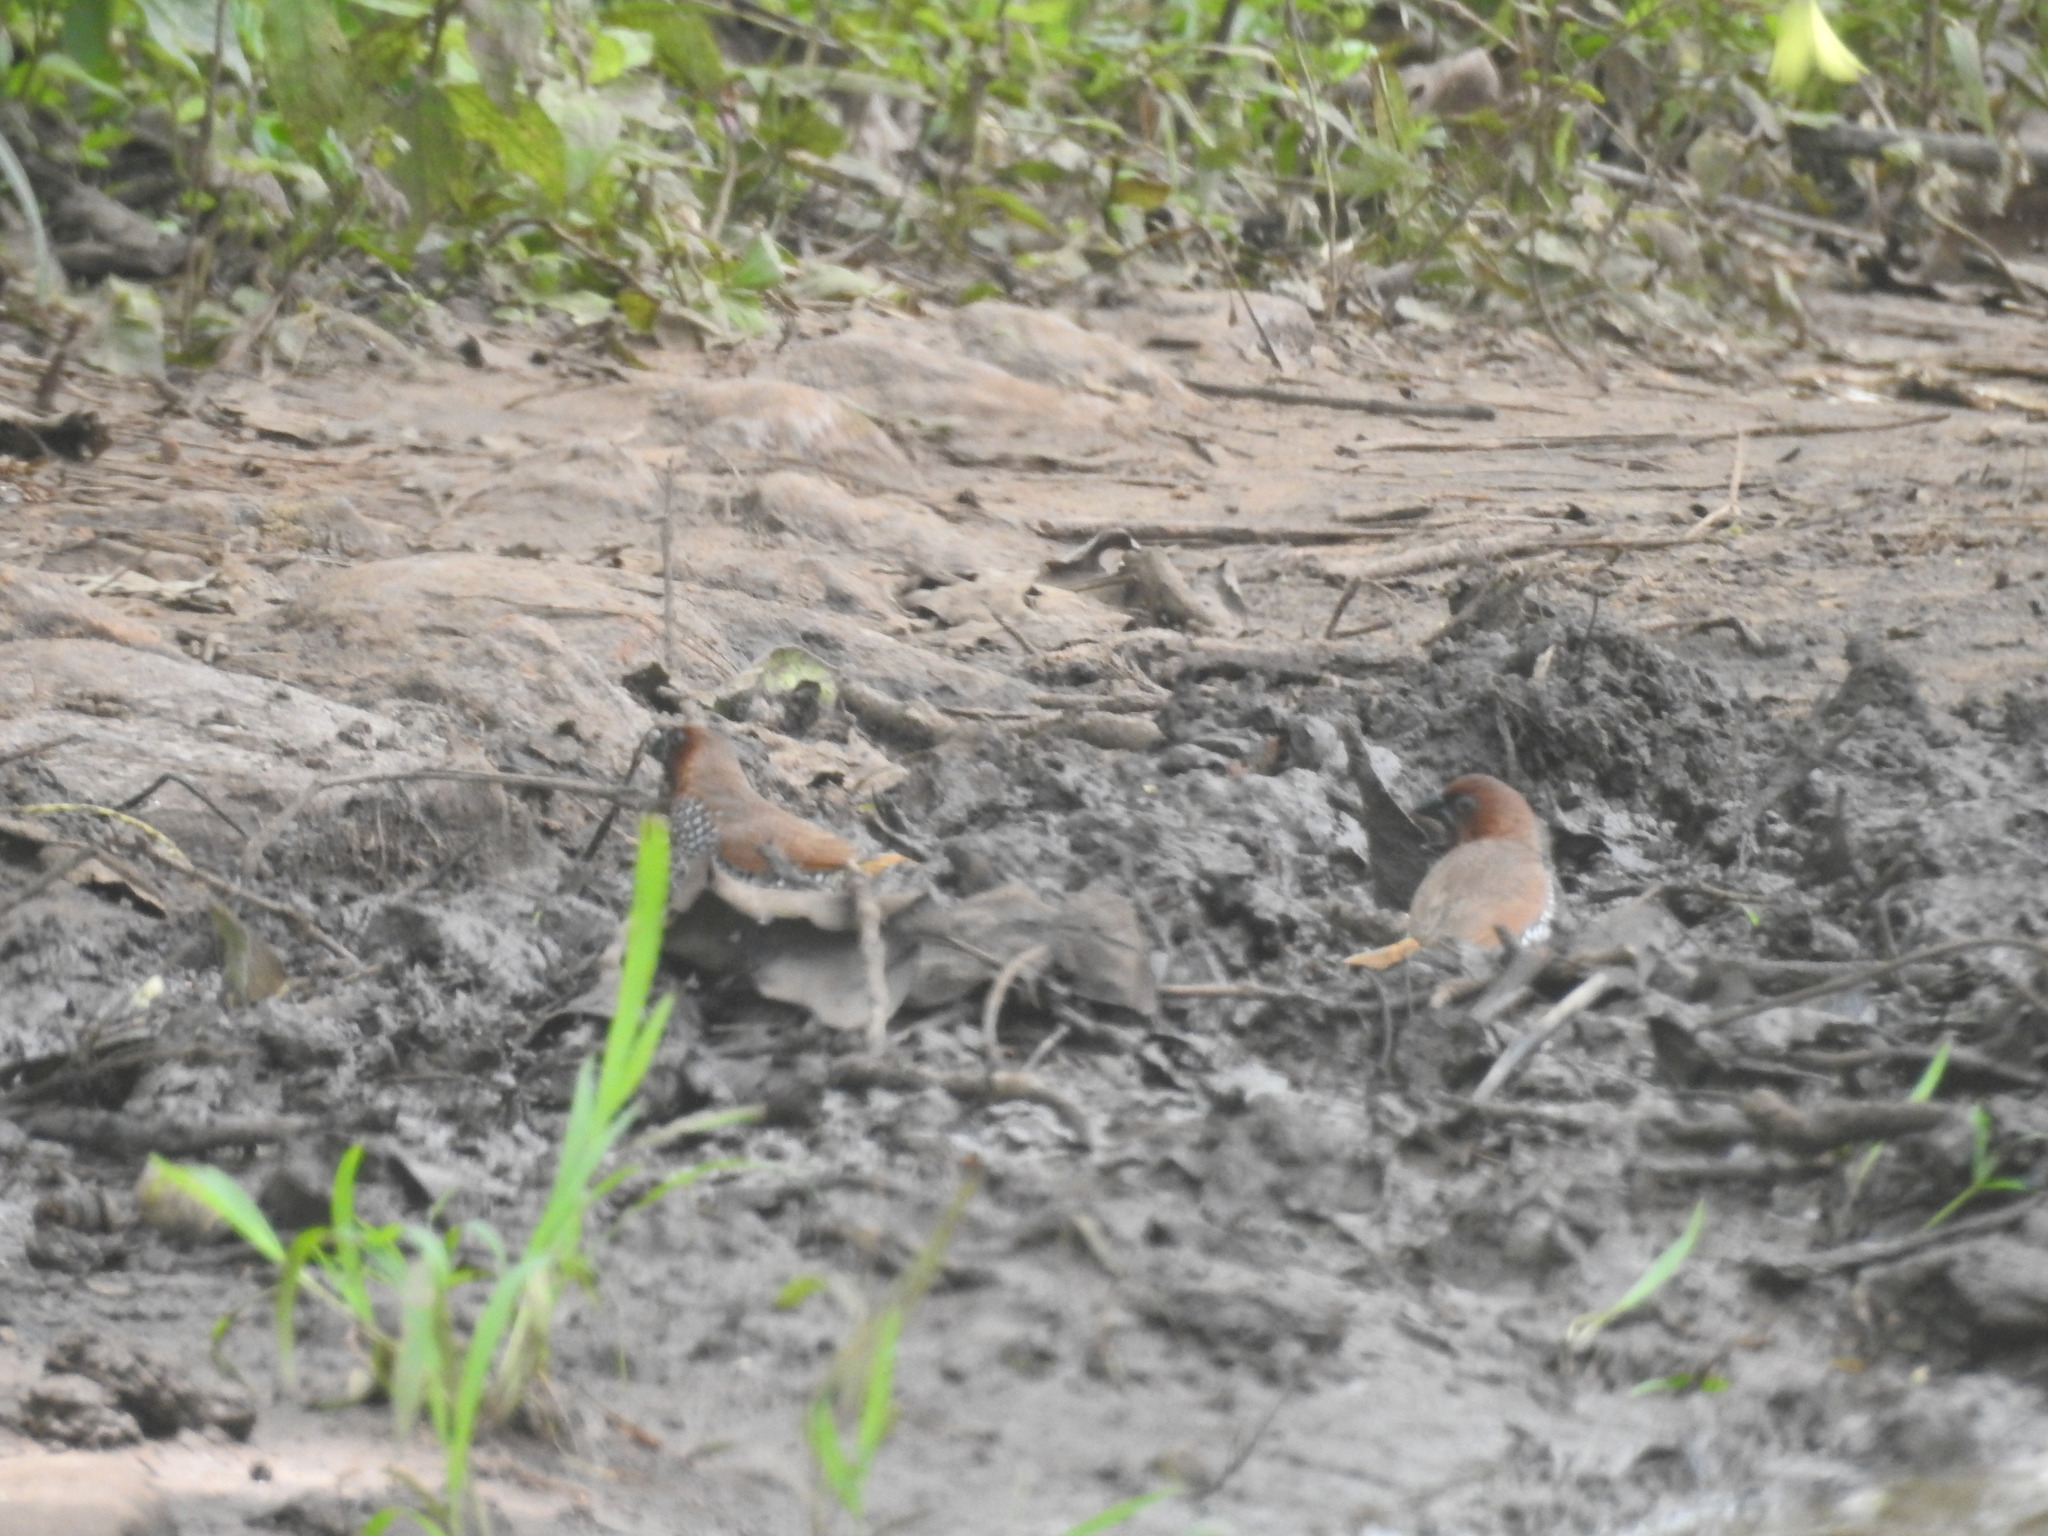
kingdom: Animalia
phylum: Chordata
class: Aves
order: Passeriformes
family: Estrildidae
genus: Lonchura
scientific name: Lonchura punctulata
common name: Scaly-breasted munia
